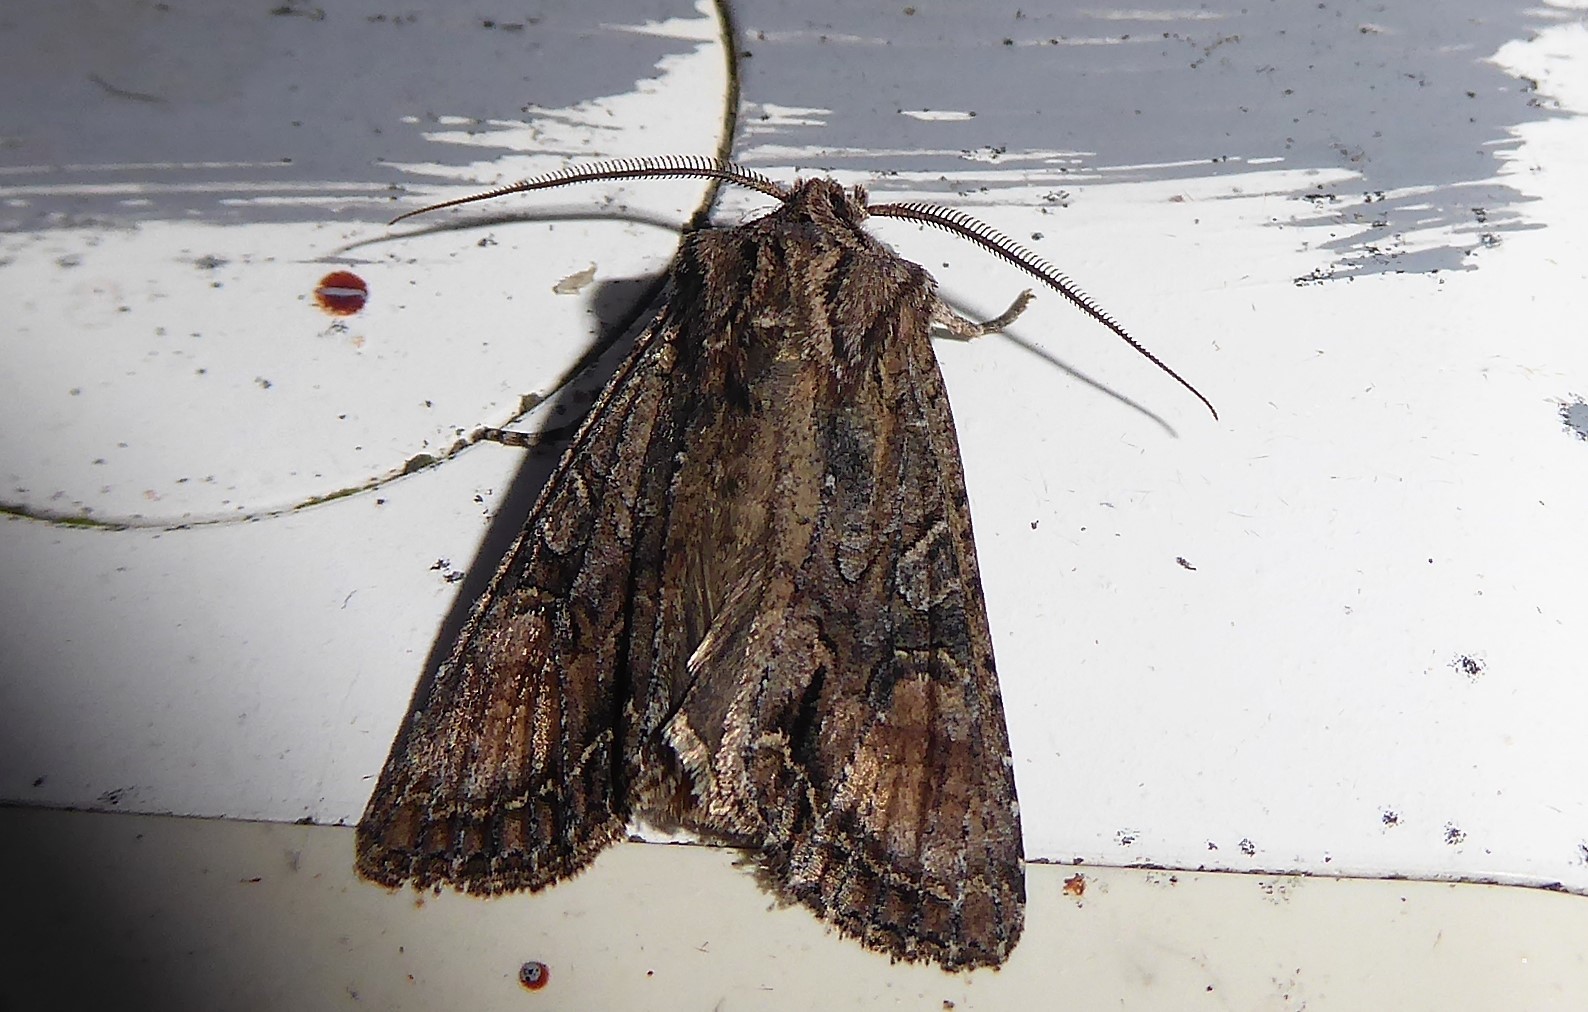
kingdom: Animalia
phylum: Arthropoda
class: Insecta
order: Lepidoptera
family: Noctuidae
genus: Ichneutica
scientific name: Ichneutica mutans
